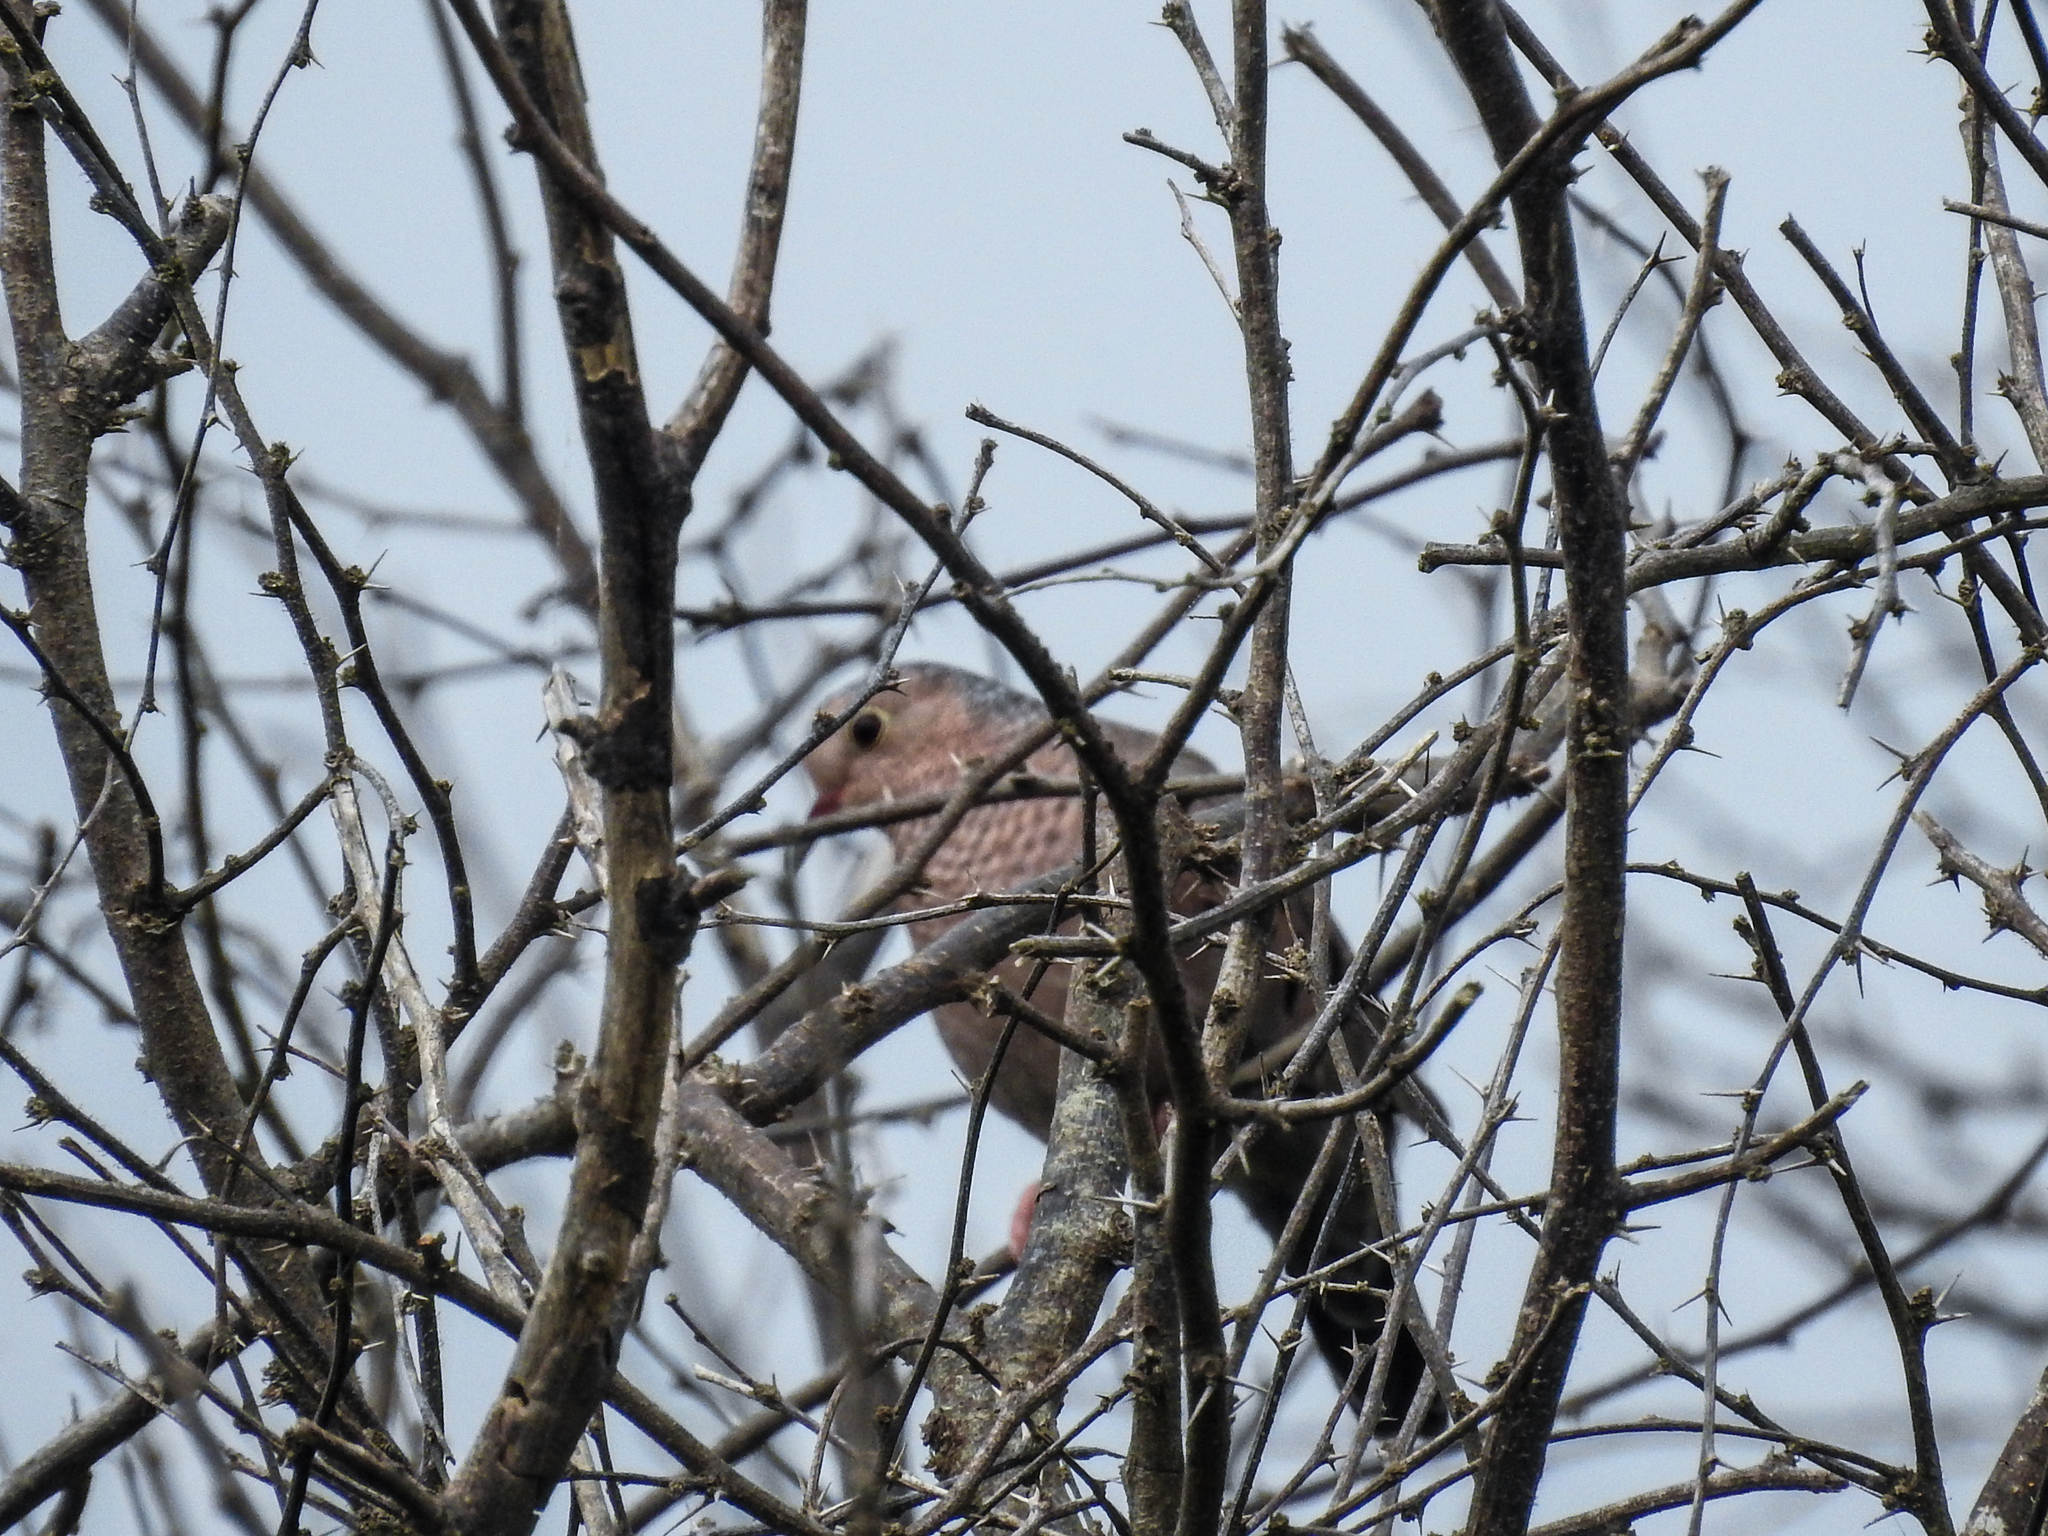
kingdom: Animalia
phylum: Chordata
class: Aves
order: Columbiformes
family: Columbidae
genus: Columbina
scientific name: Columbina passerina
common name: Common ground-dove
